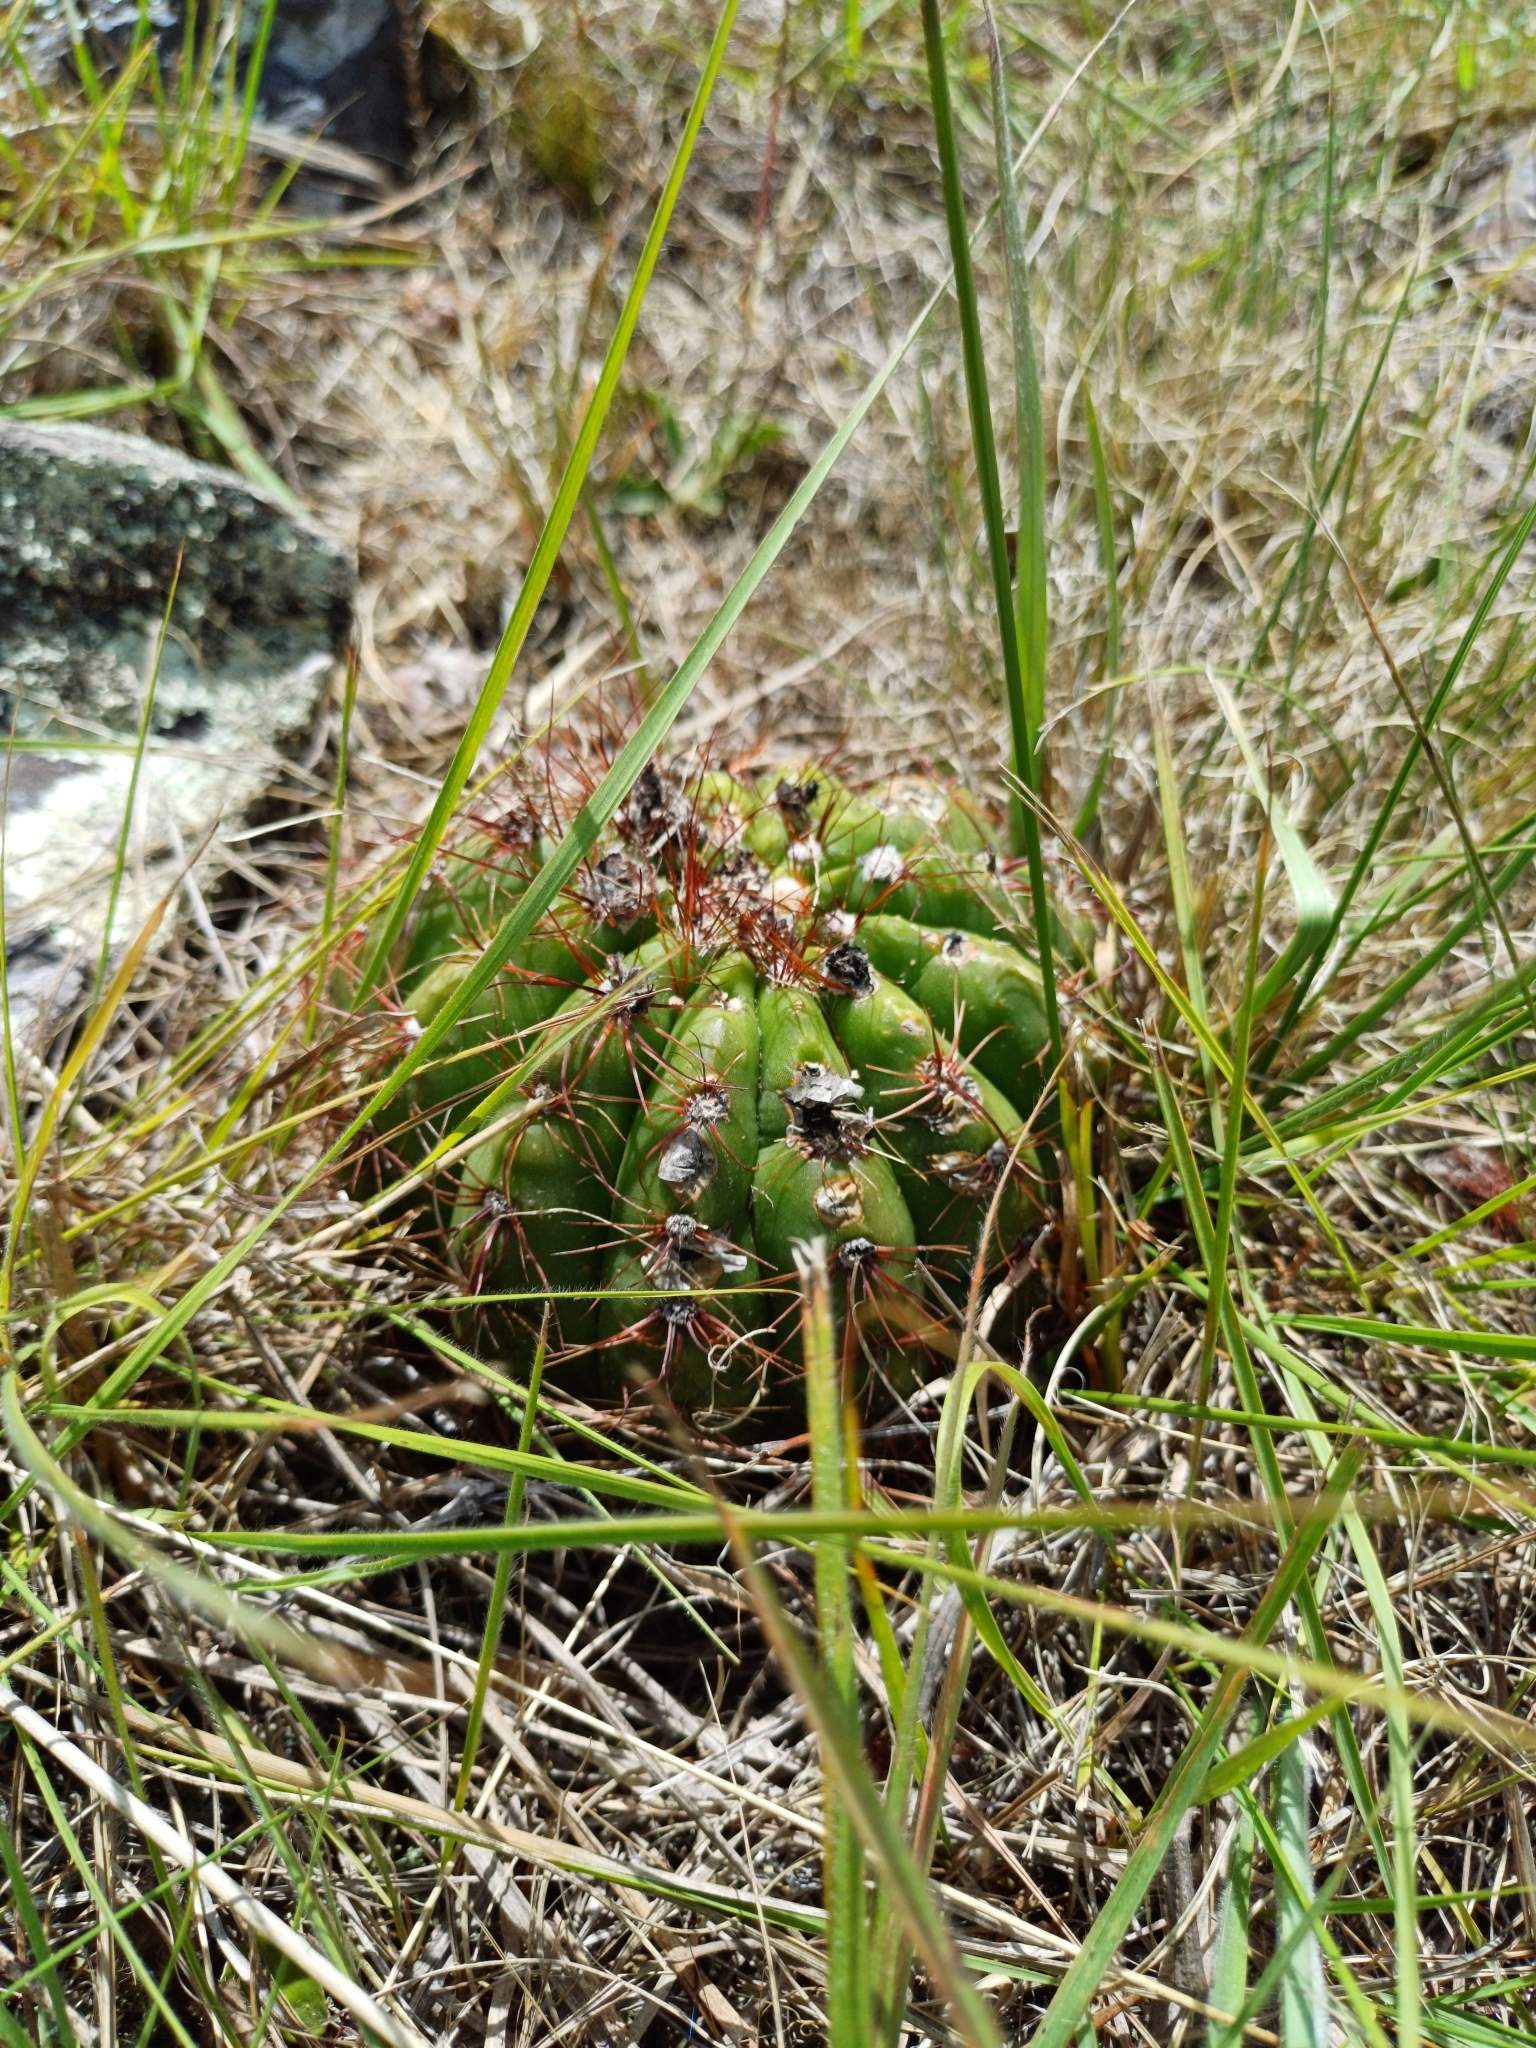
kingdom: Plantae
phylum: Tracheophyta
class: Magnoliopsida
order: Caryophyllales
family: Cactaceae
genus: Parodia
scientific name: Parodia ottonis
